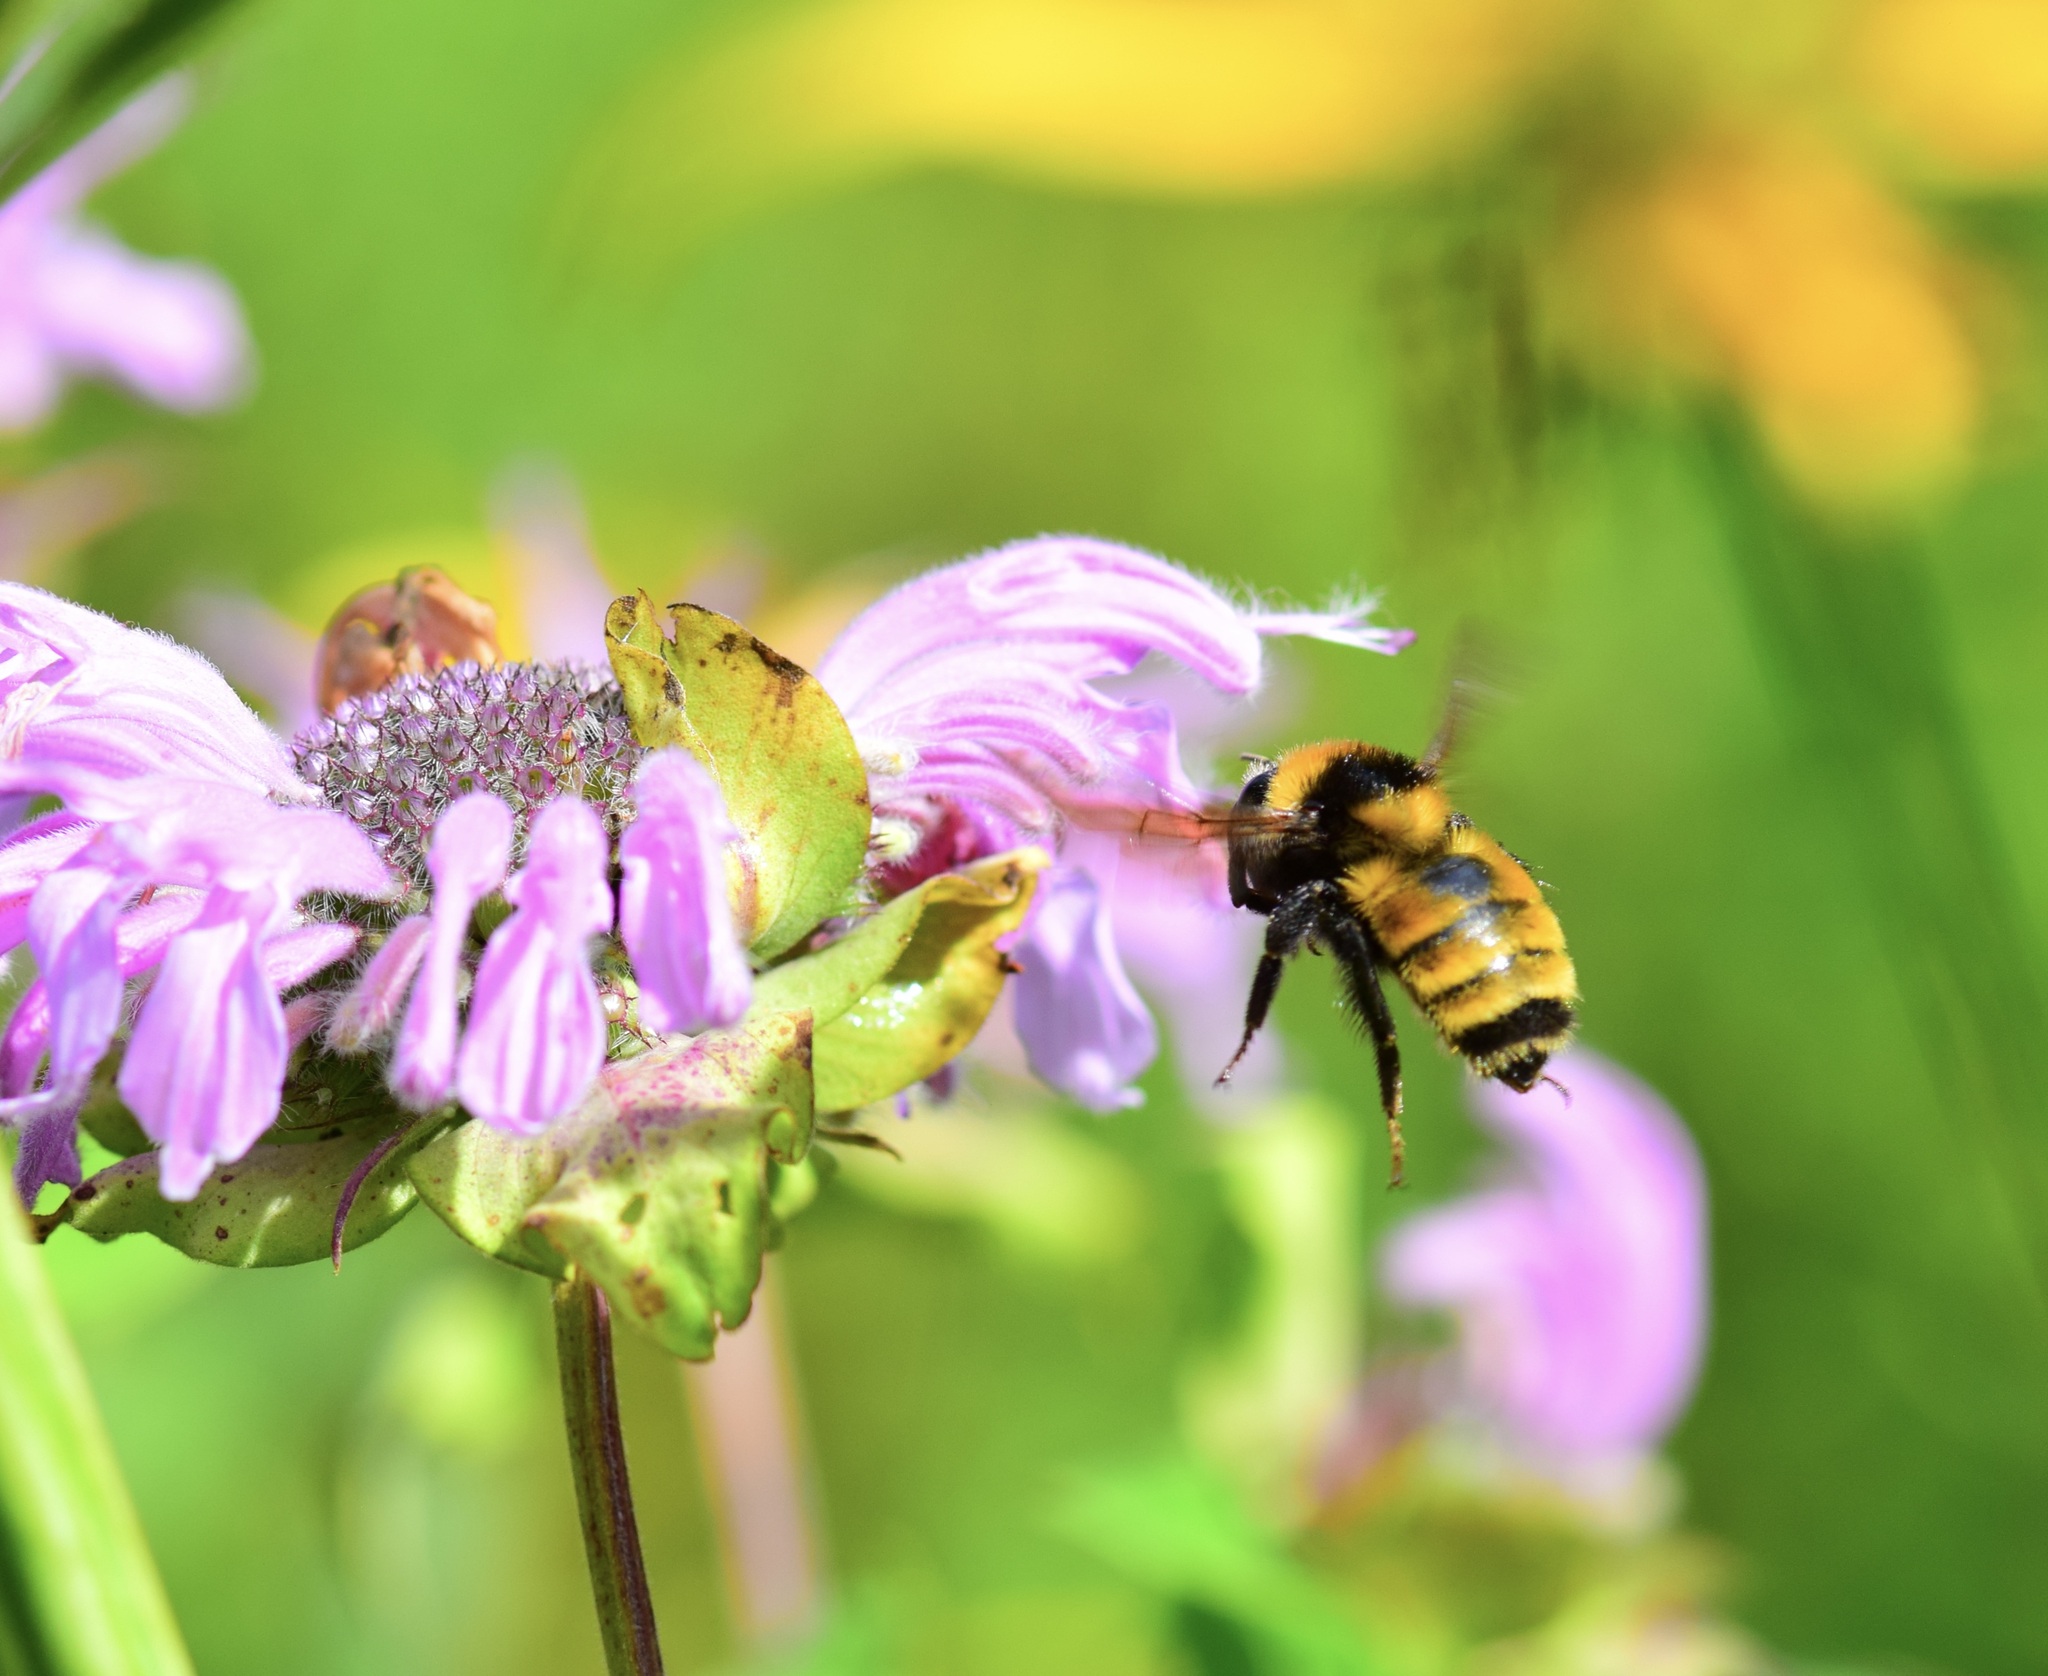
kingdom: Animalia
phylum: Arthropoda
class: Insecta
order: Hymenoptera
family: Apidae
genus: Bombus
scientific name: Bombus borealis
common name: Northern amber bumble bee
